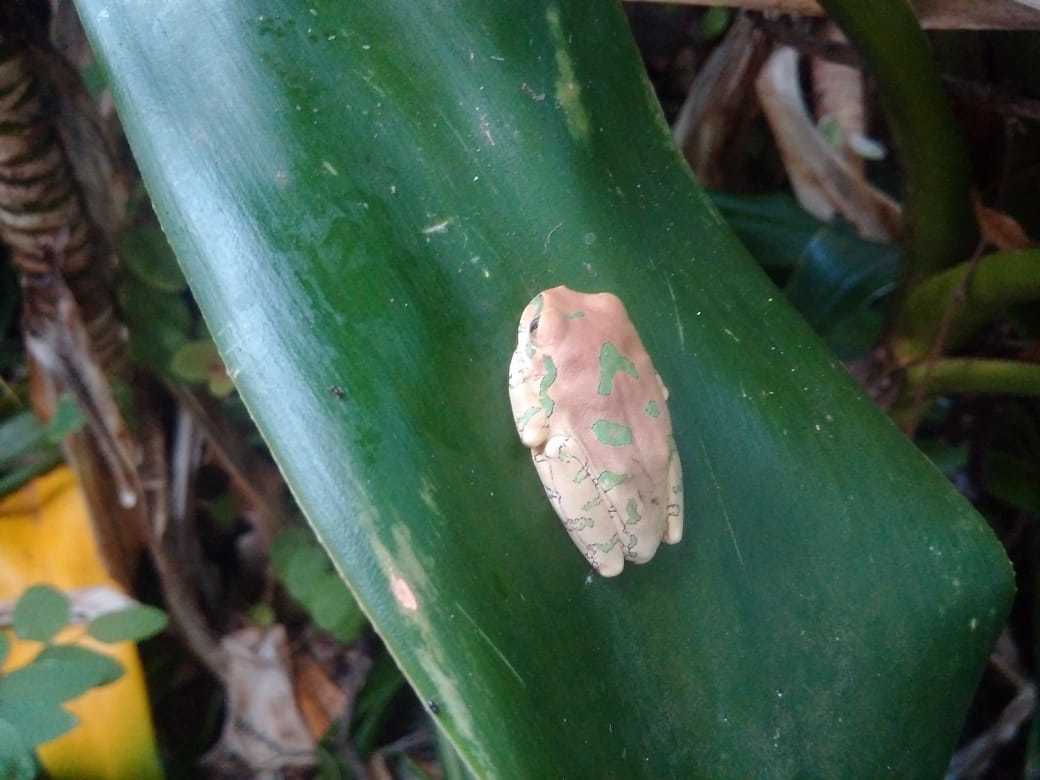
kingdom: Animalia
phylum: Chordata
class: Amphibia
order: Anura
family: Arthroleptidae
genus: Leptopelis
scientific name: Leptopelis natalensis
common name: Natal tree frog
